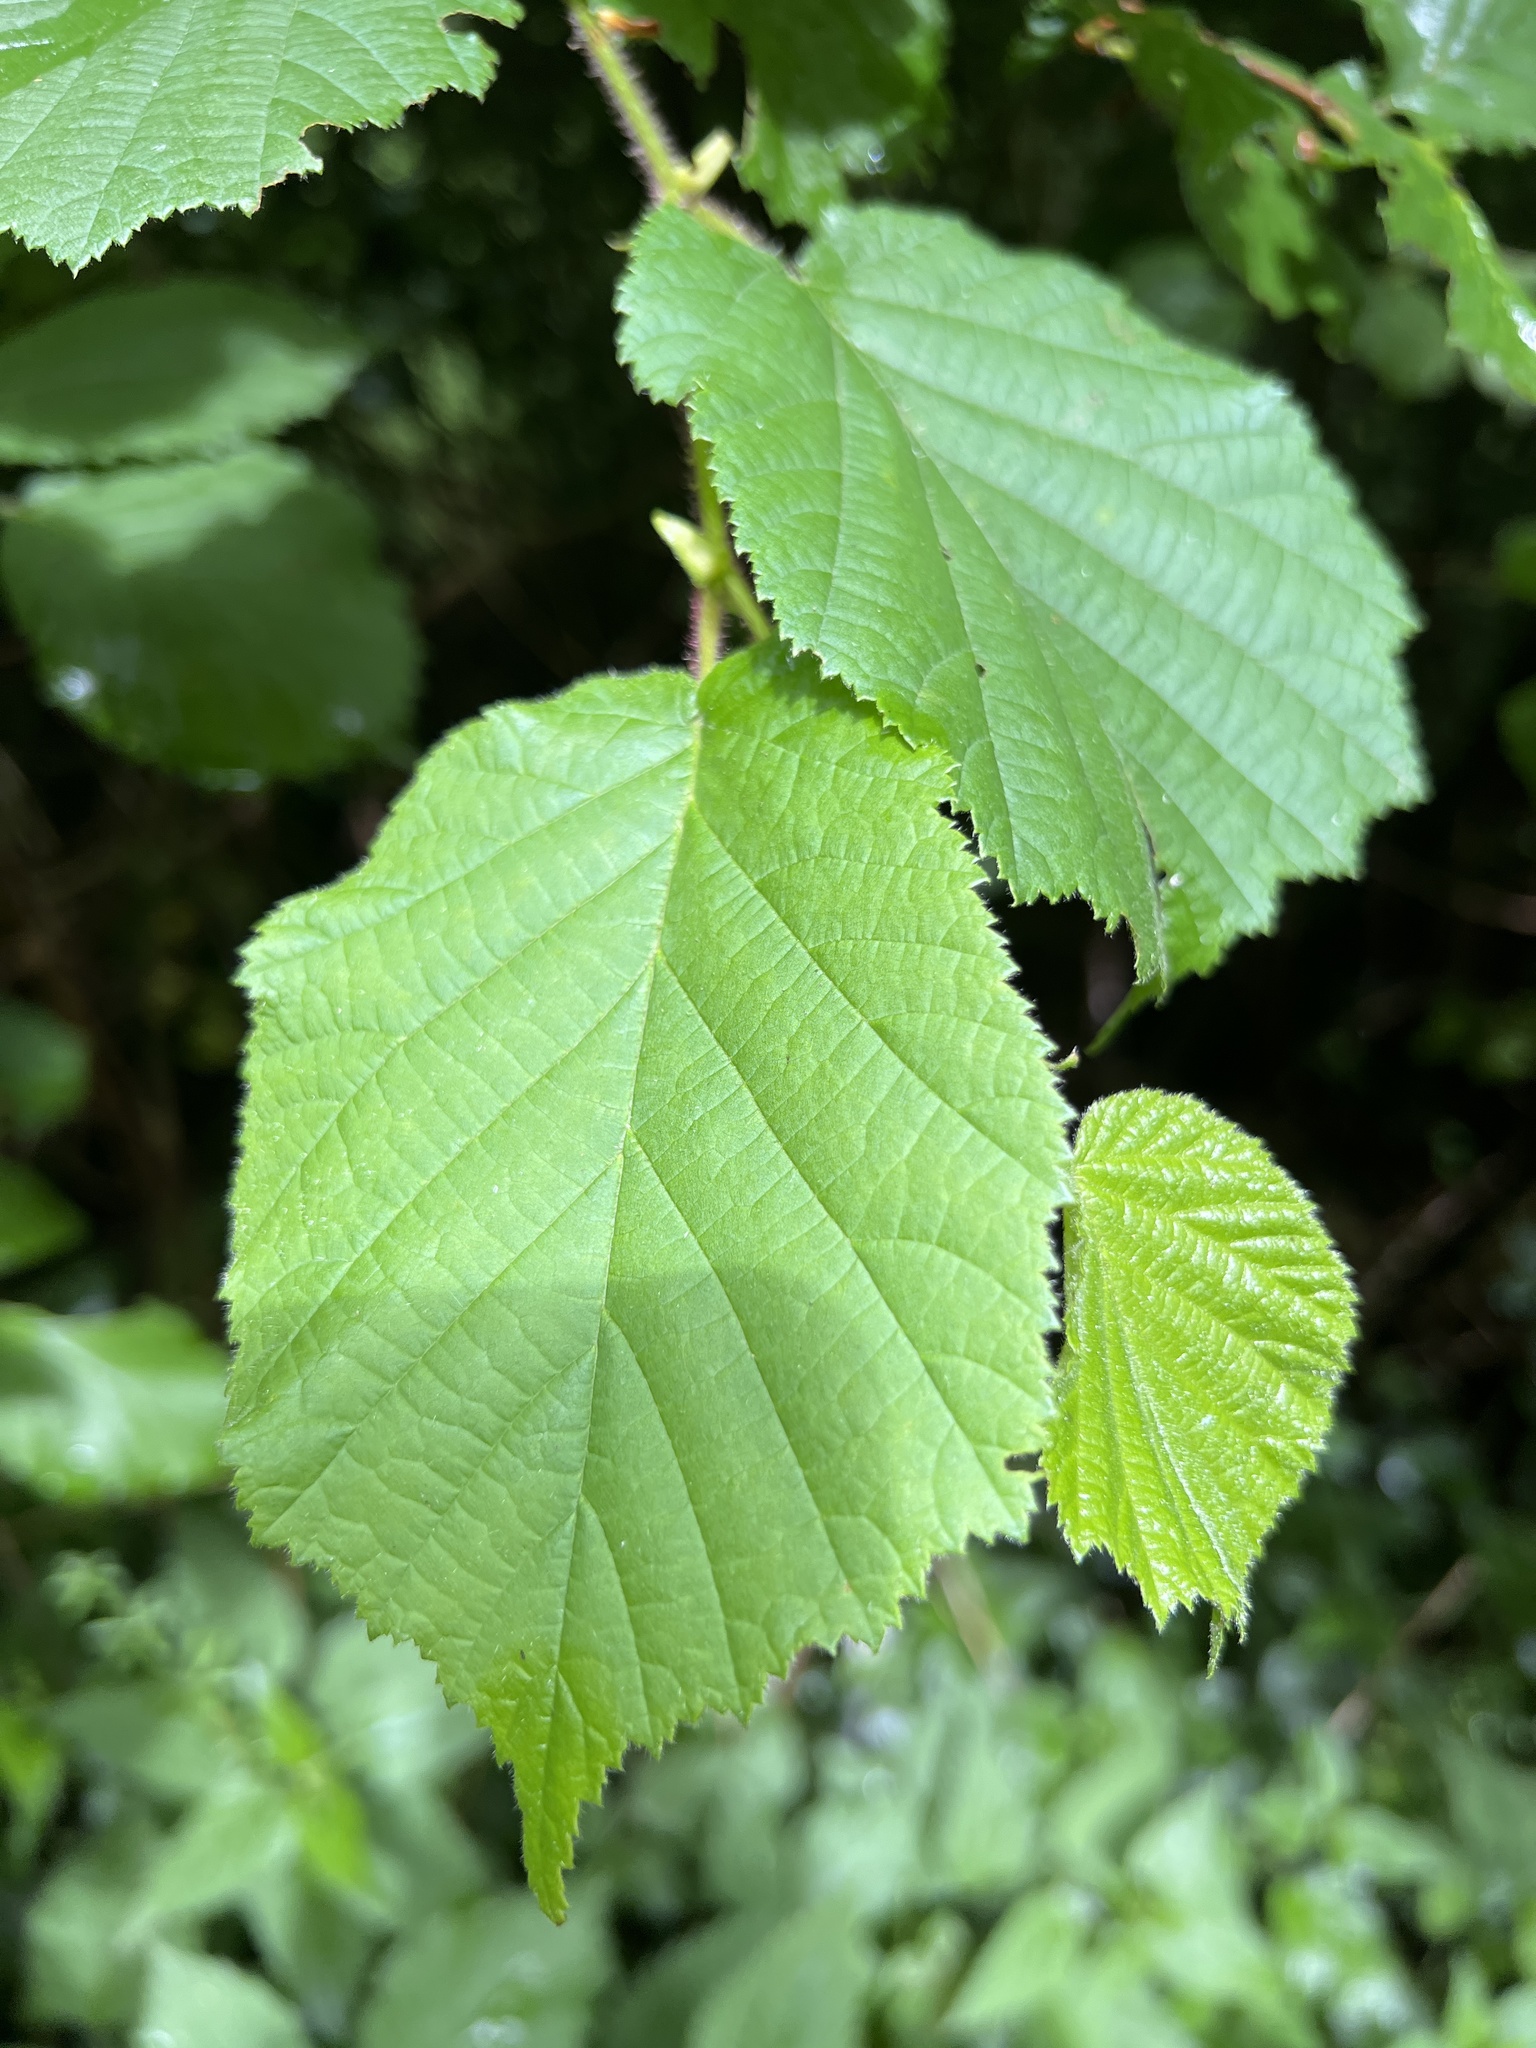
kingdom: Plantae
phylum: Tracheophyta
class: Magnoliopsida
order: Fagales
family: Betulaceae
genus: Corylus
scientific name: Corylus avellana
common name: European hazel
